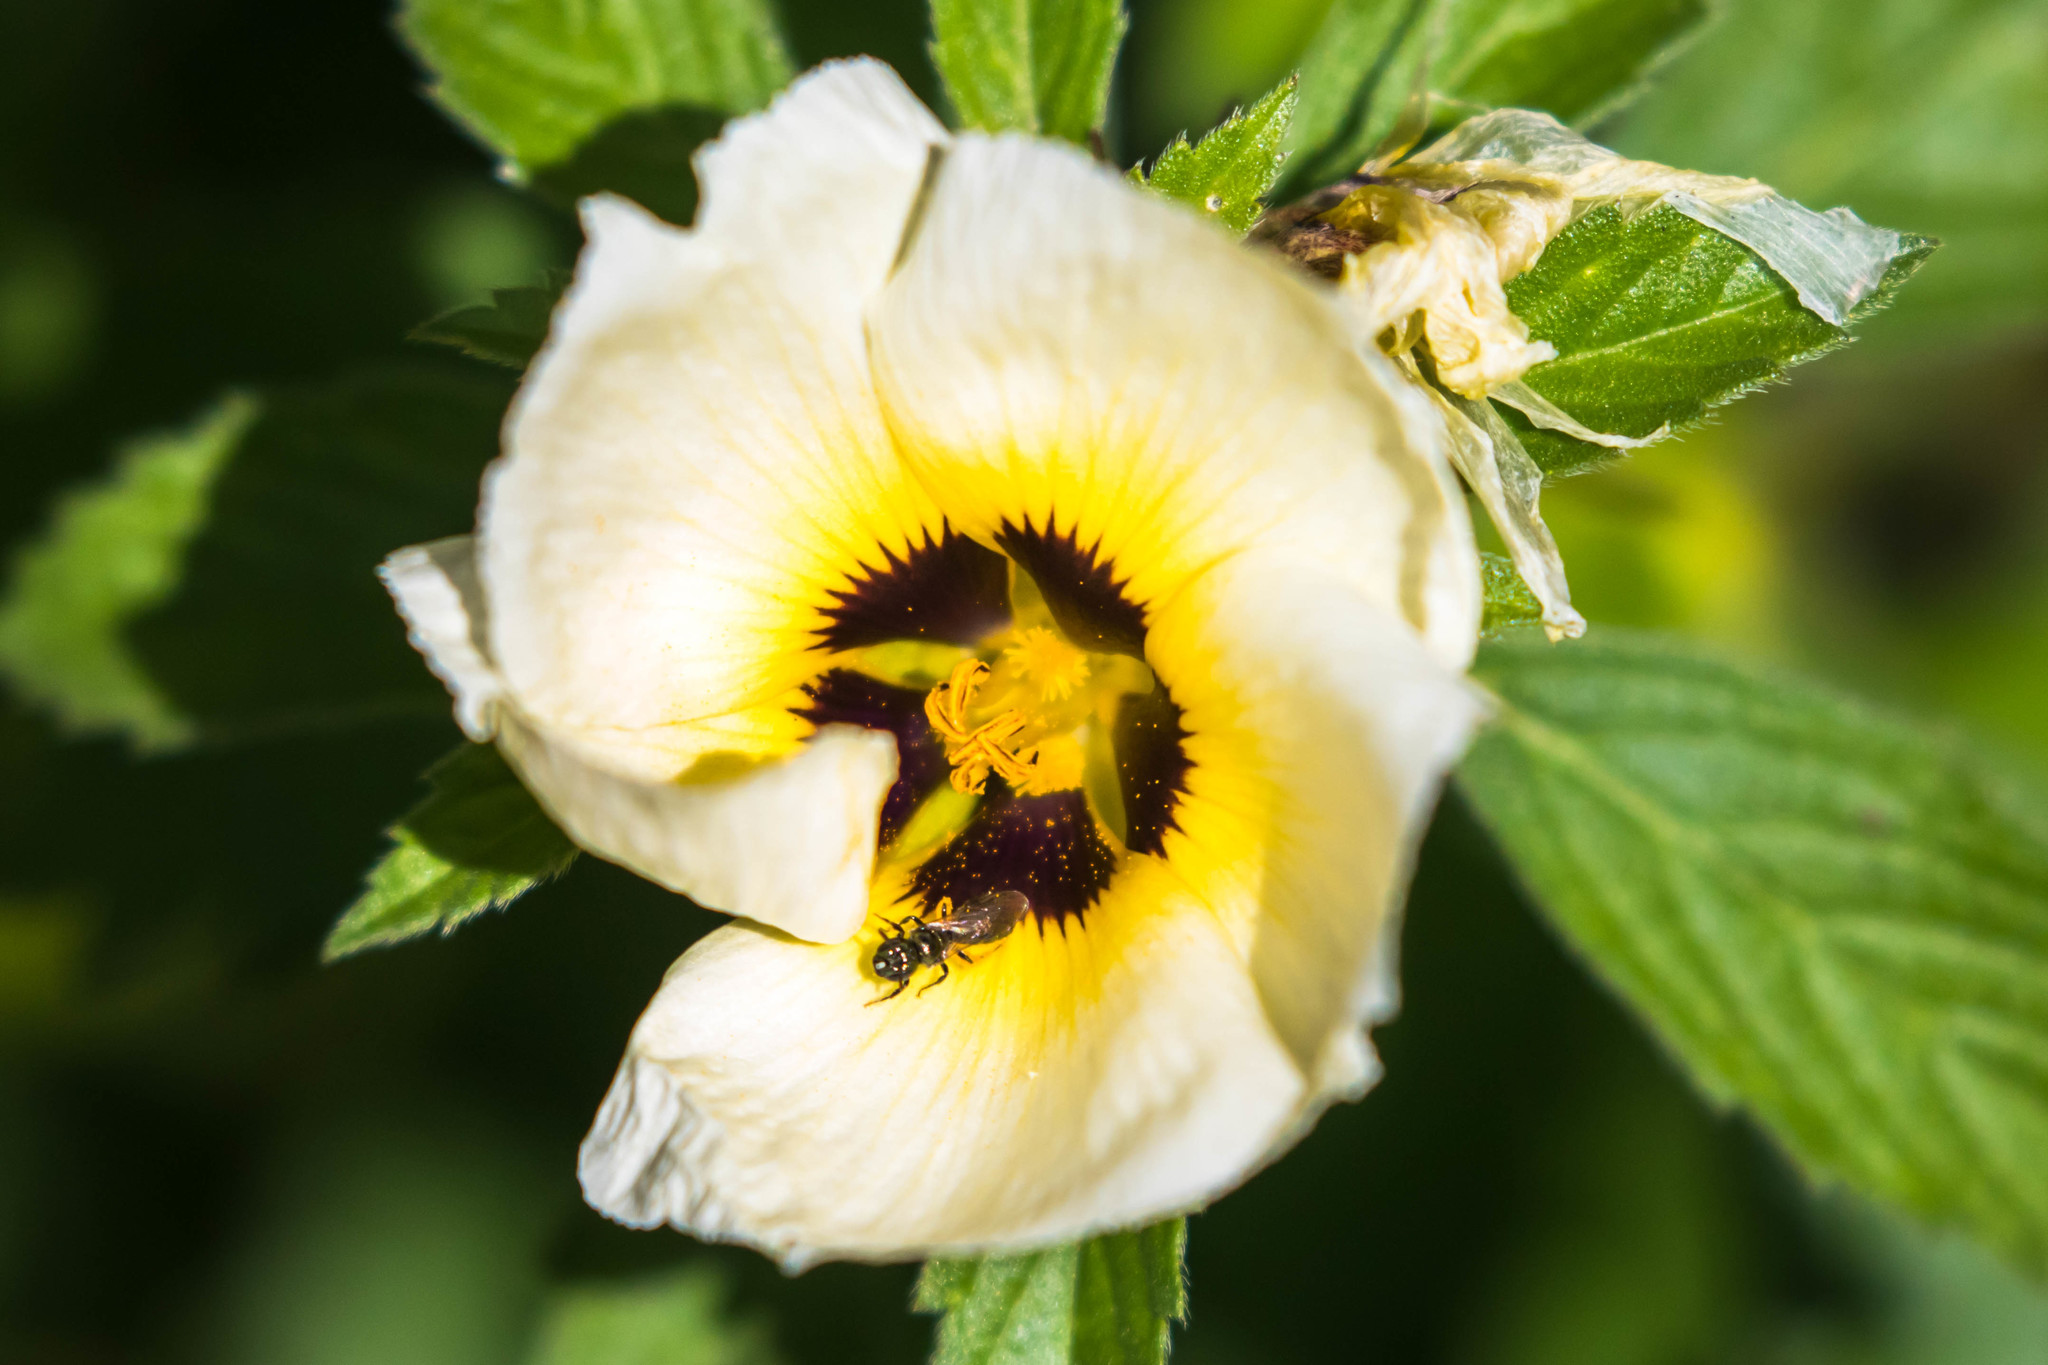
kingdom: Plantae
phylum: Tracheophyta
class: Magnoliopsida
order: Malpighiales
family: Turneraceae
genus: Turnera
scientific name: Turnera subulata
